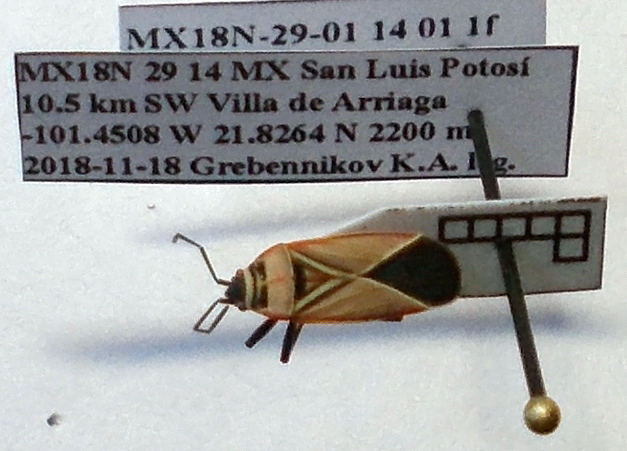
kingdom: Animalia
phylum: Arthropoda
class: Insecta
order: Hemiptera
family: Lygaeidae
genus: Neacoryphus
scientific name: Neacoryphus bicrucis
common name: Lygaeid bug
